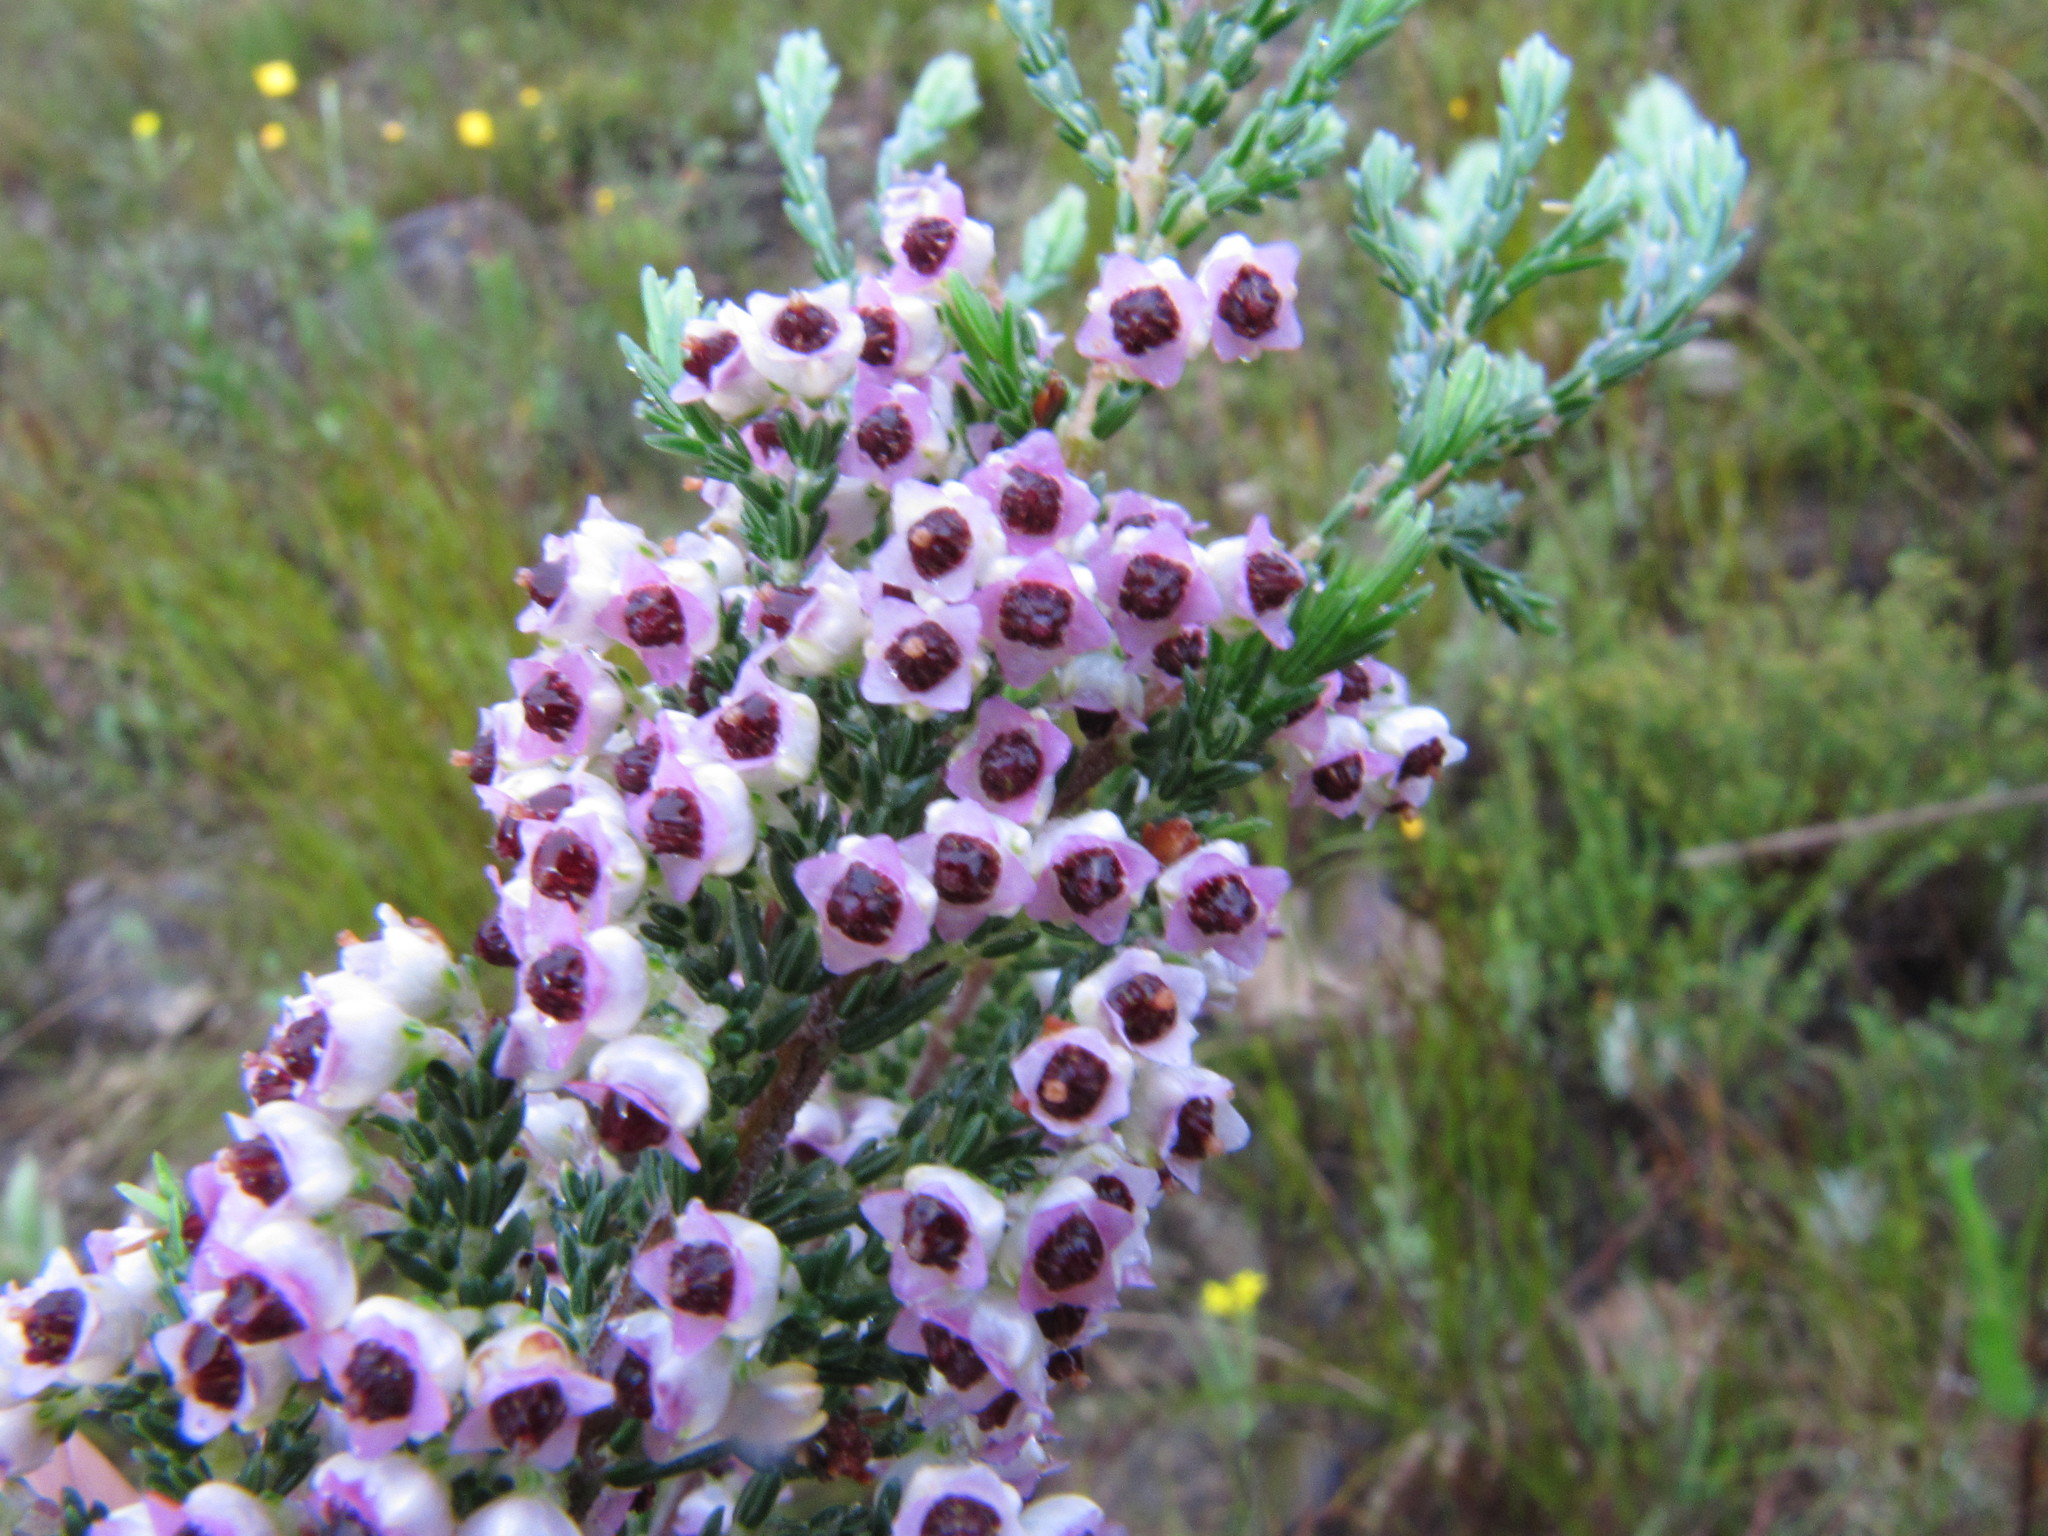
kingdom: Plantae
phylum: Tracheophyta
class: Magnoliopsida
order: Ericales
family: Ericaceae
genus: Erica
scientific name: Erica calycina
